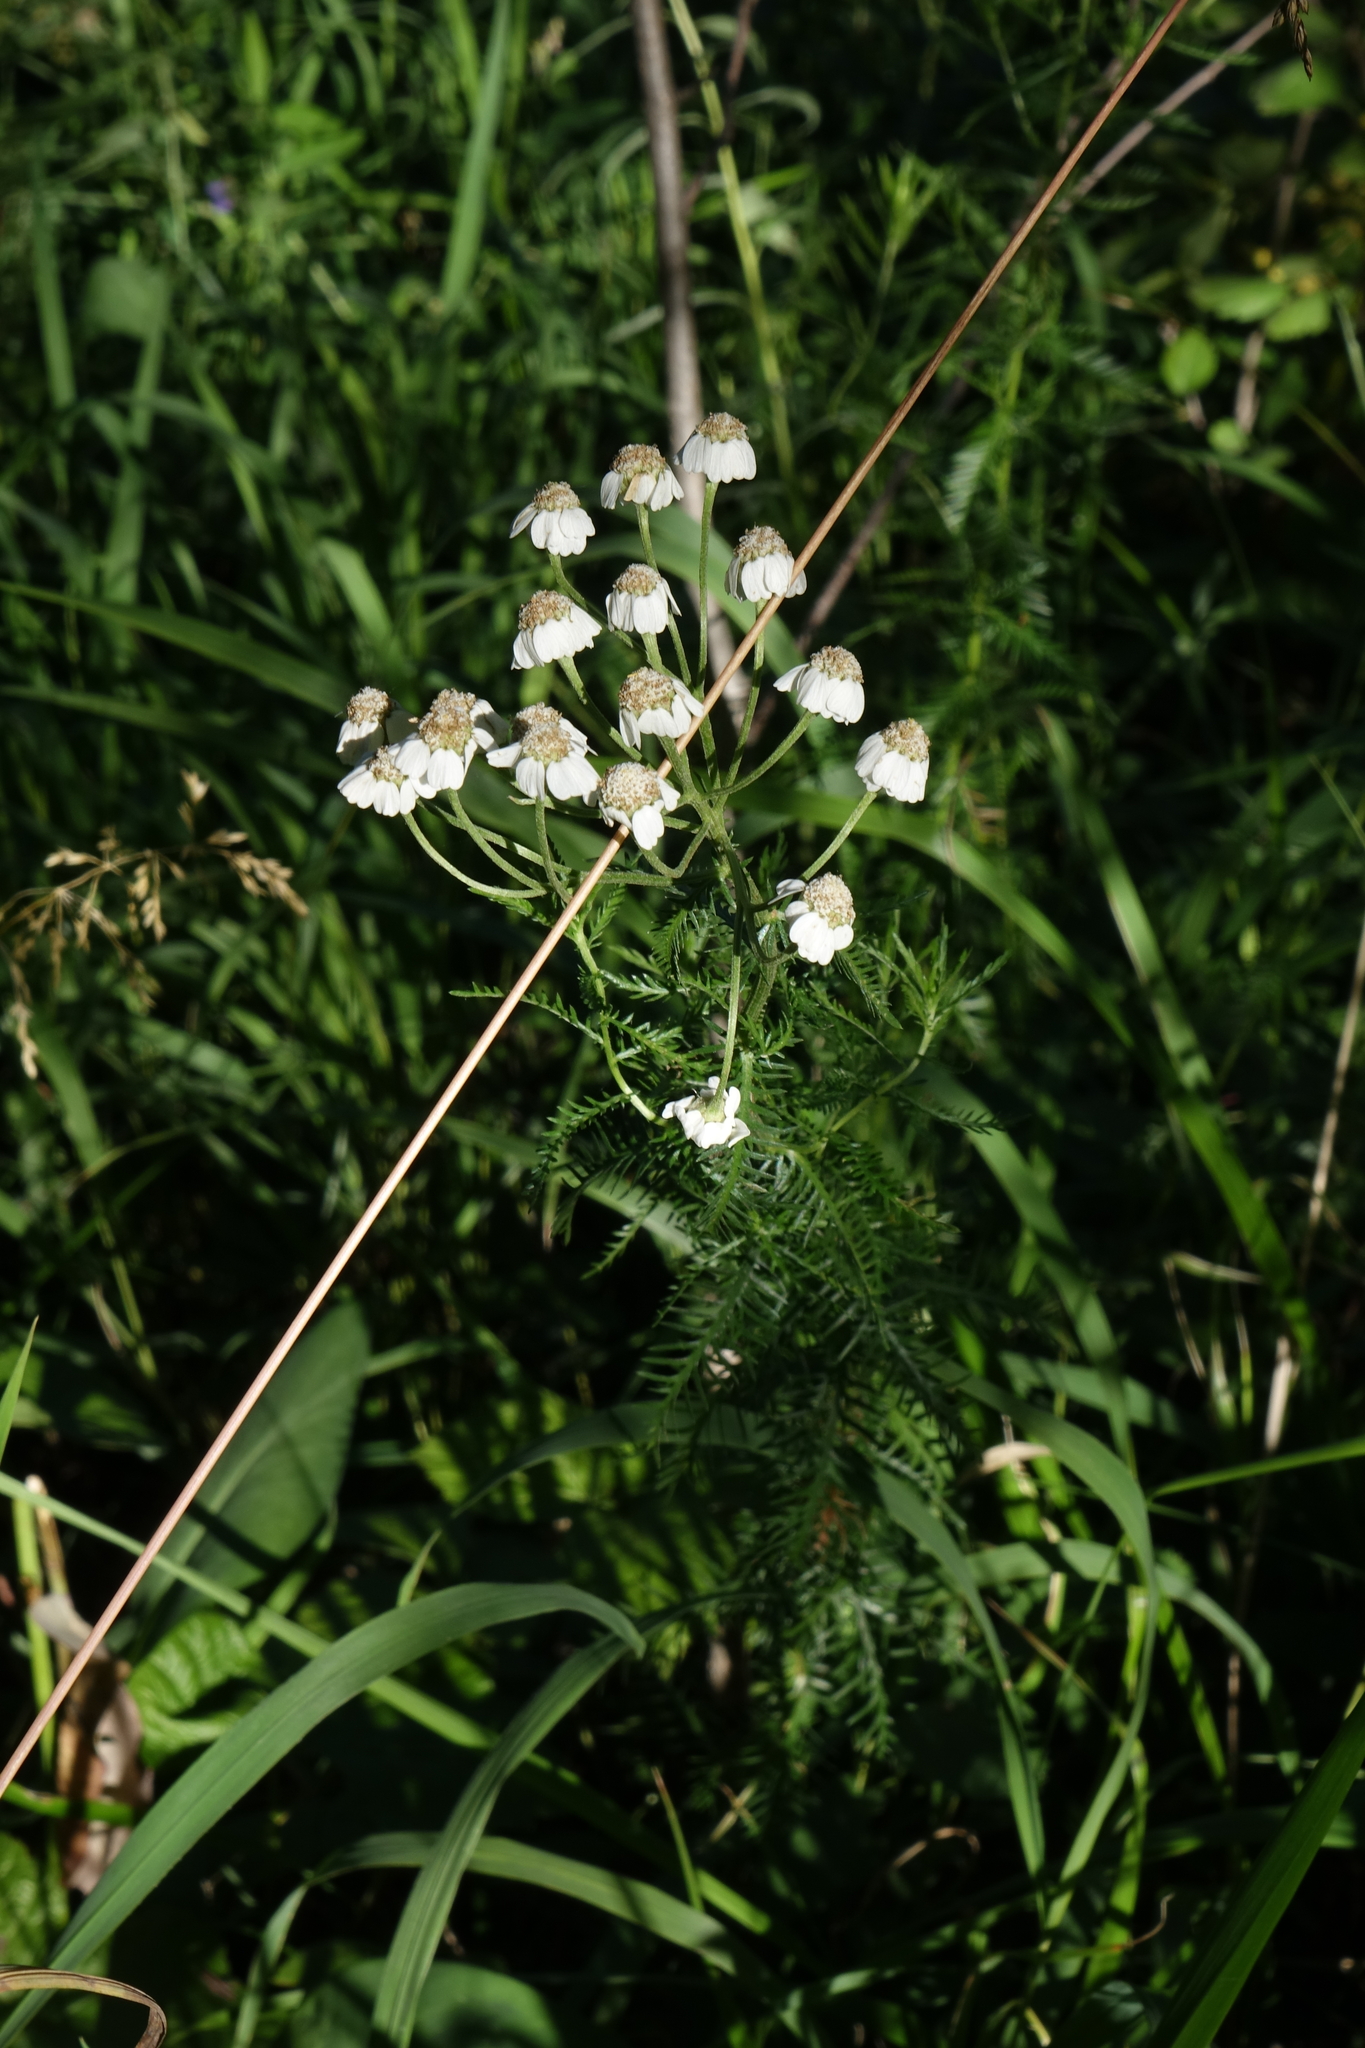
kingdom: Plantae
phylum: Tracheophyta
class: Magnoliopsida
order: Asterales
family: Asteraceae
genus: Achillea
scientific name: Achillea impatiens
